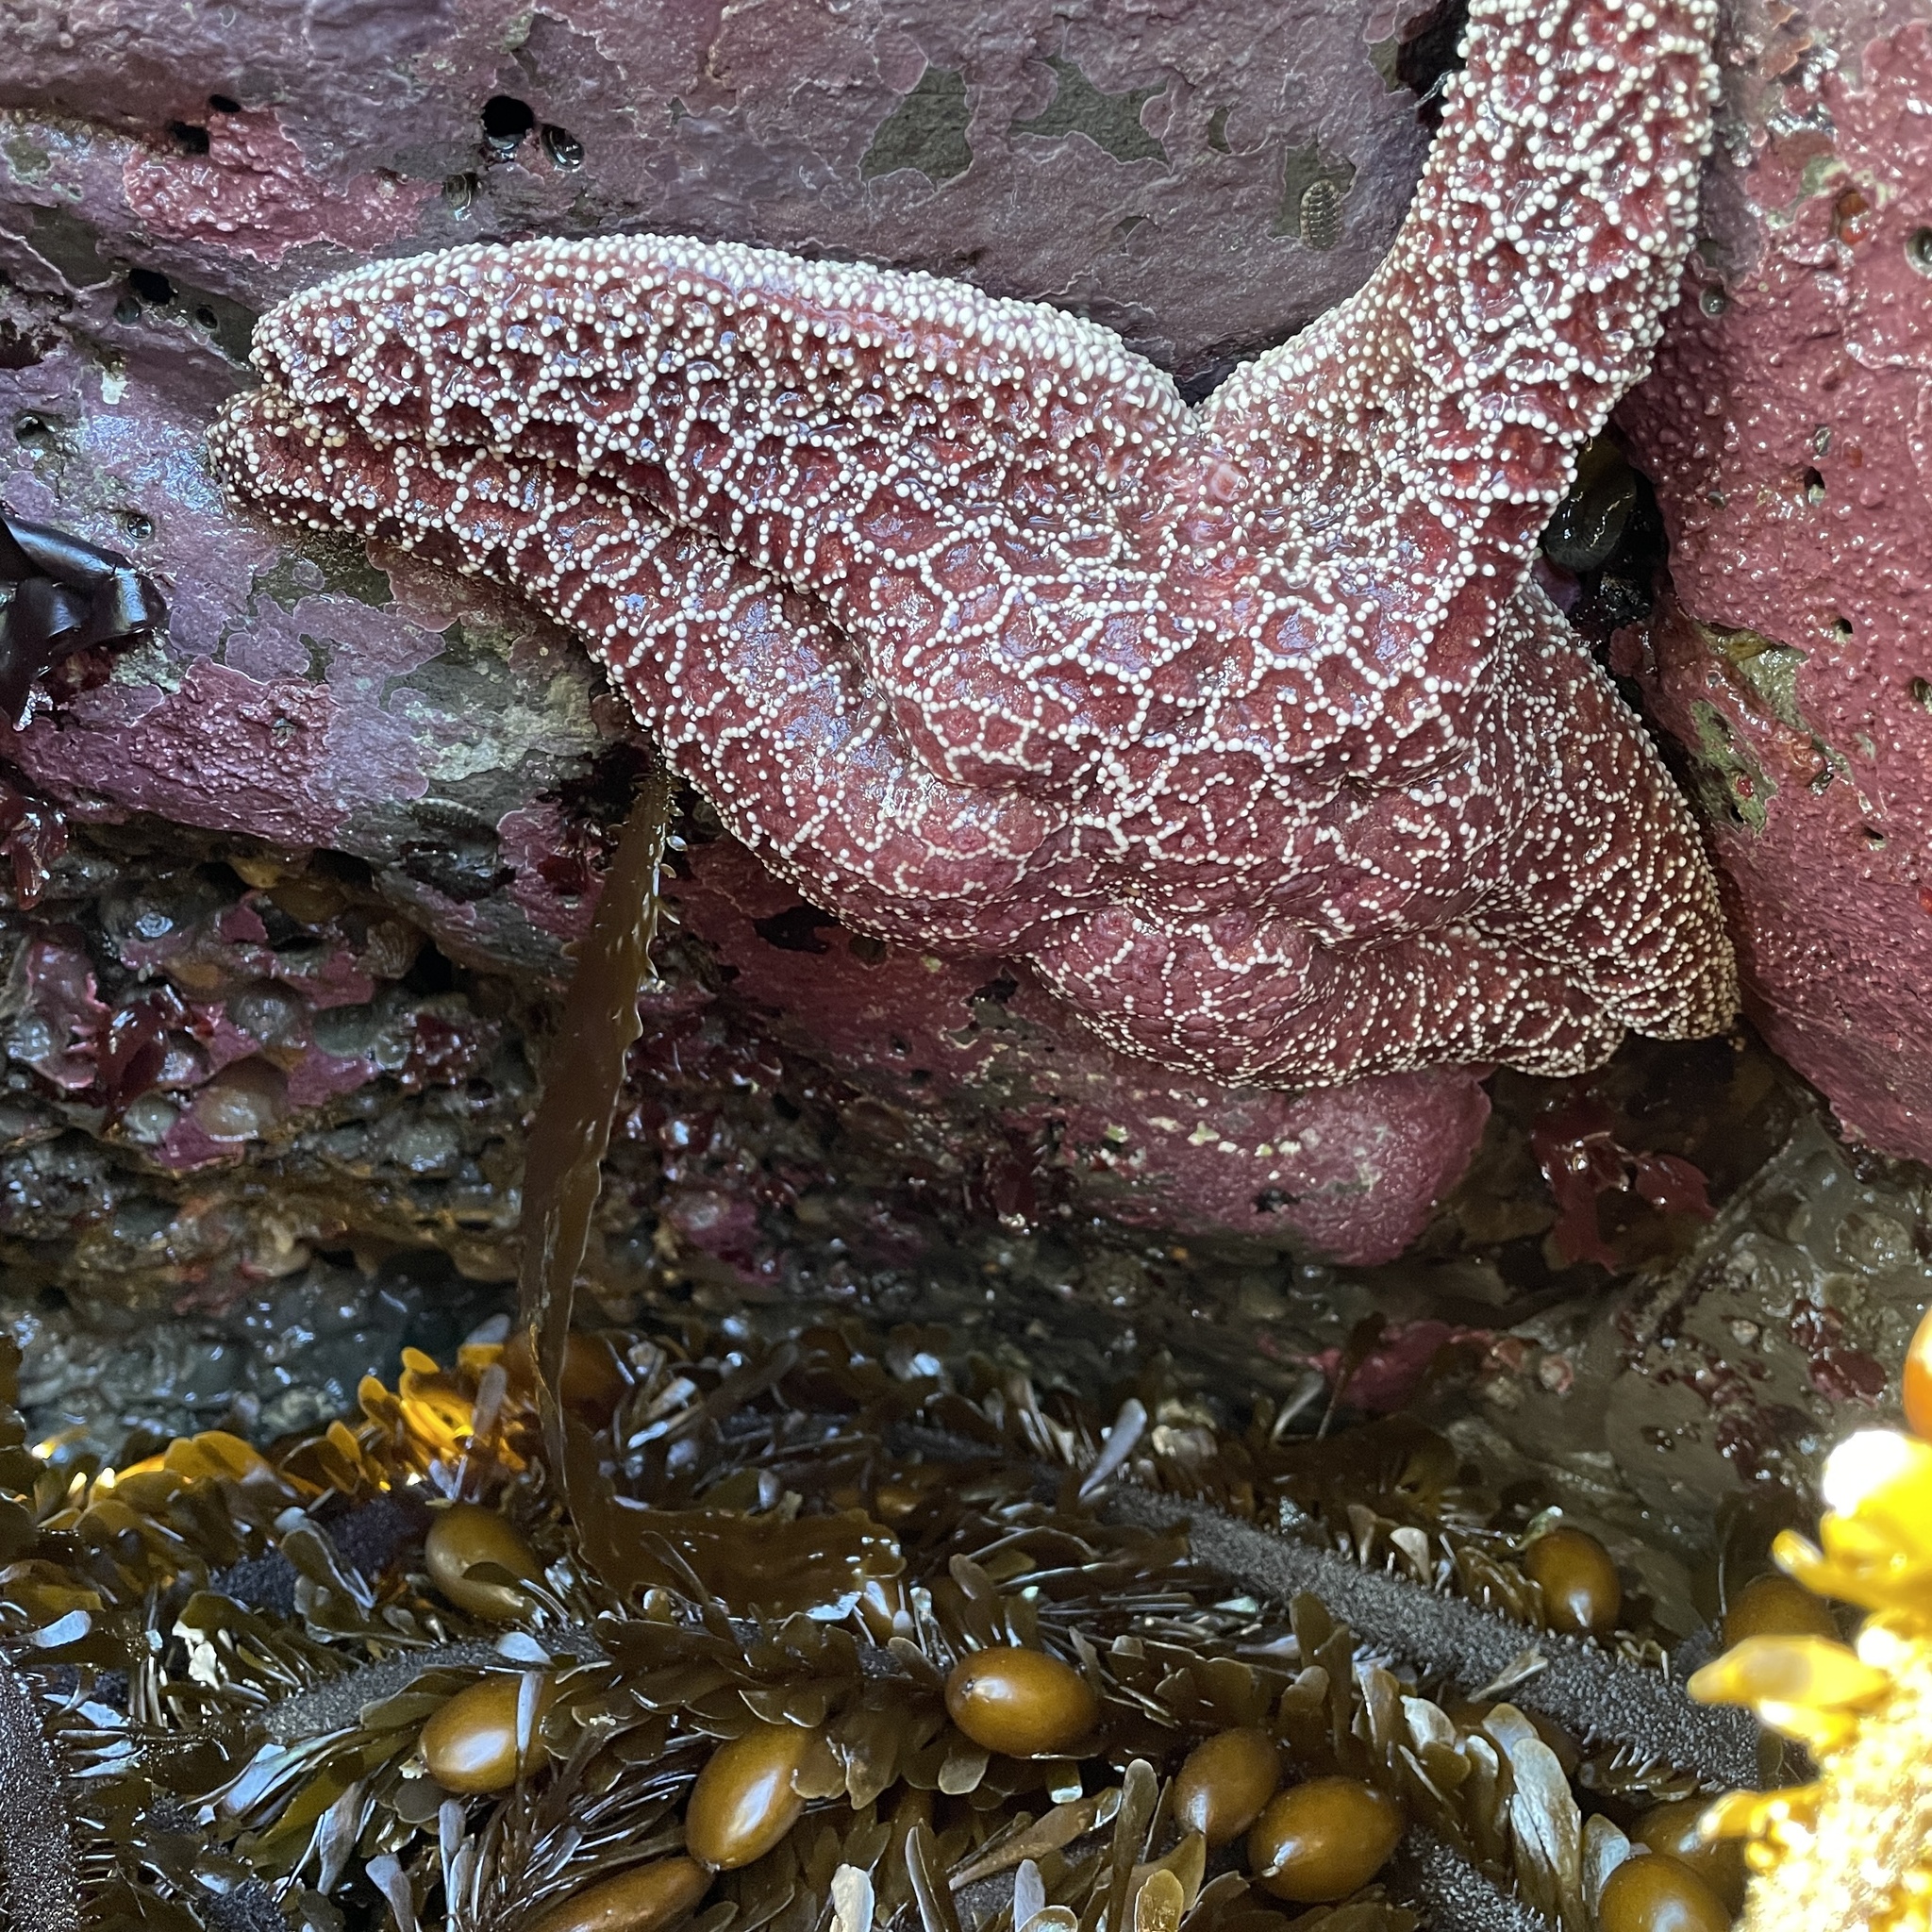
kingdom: Animalia
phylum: Echinodermata
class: Asteroidea
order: Forcipulatida
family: Asteriidae
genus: Pisaster
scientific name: Pisaster ochraceus
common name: Ochre stars
